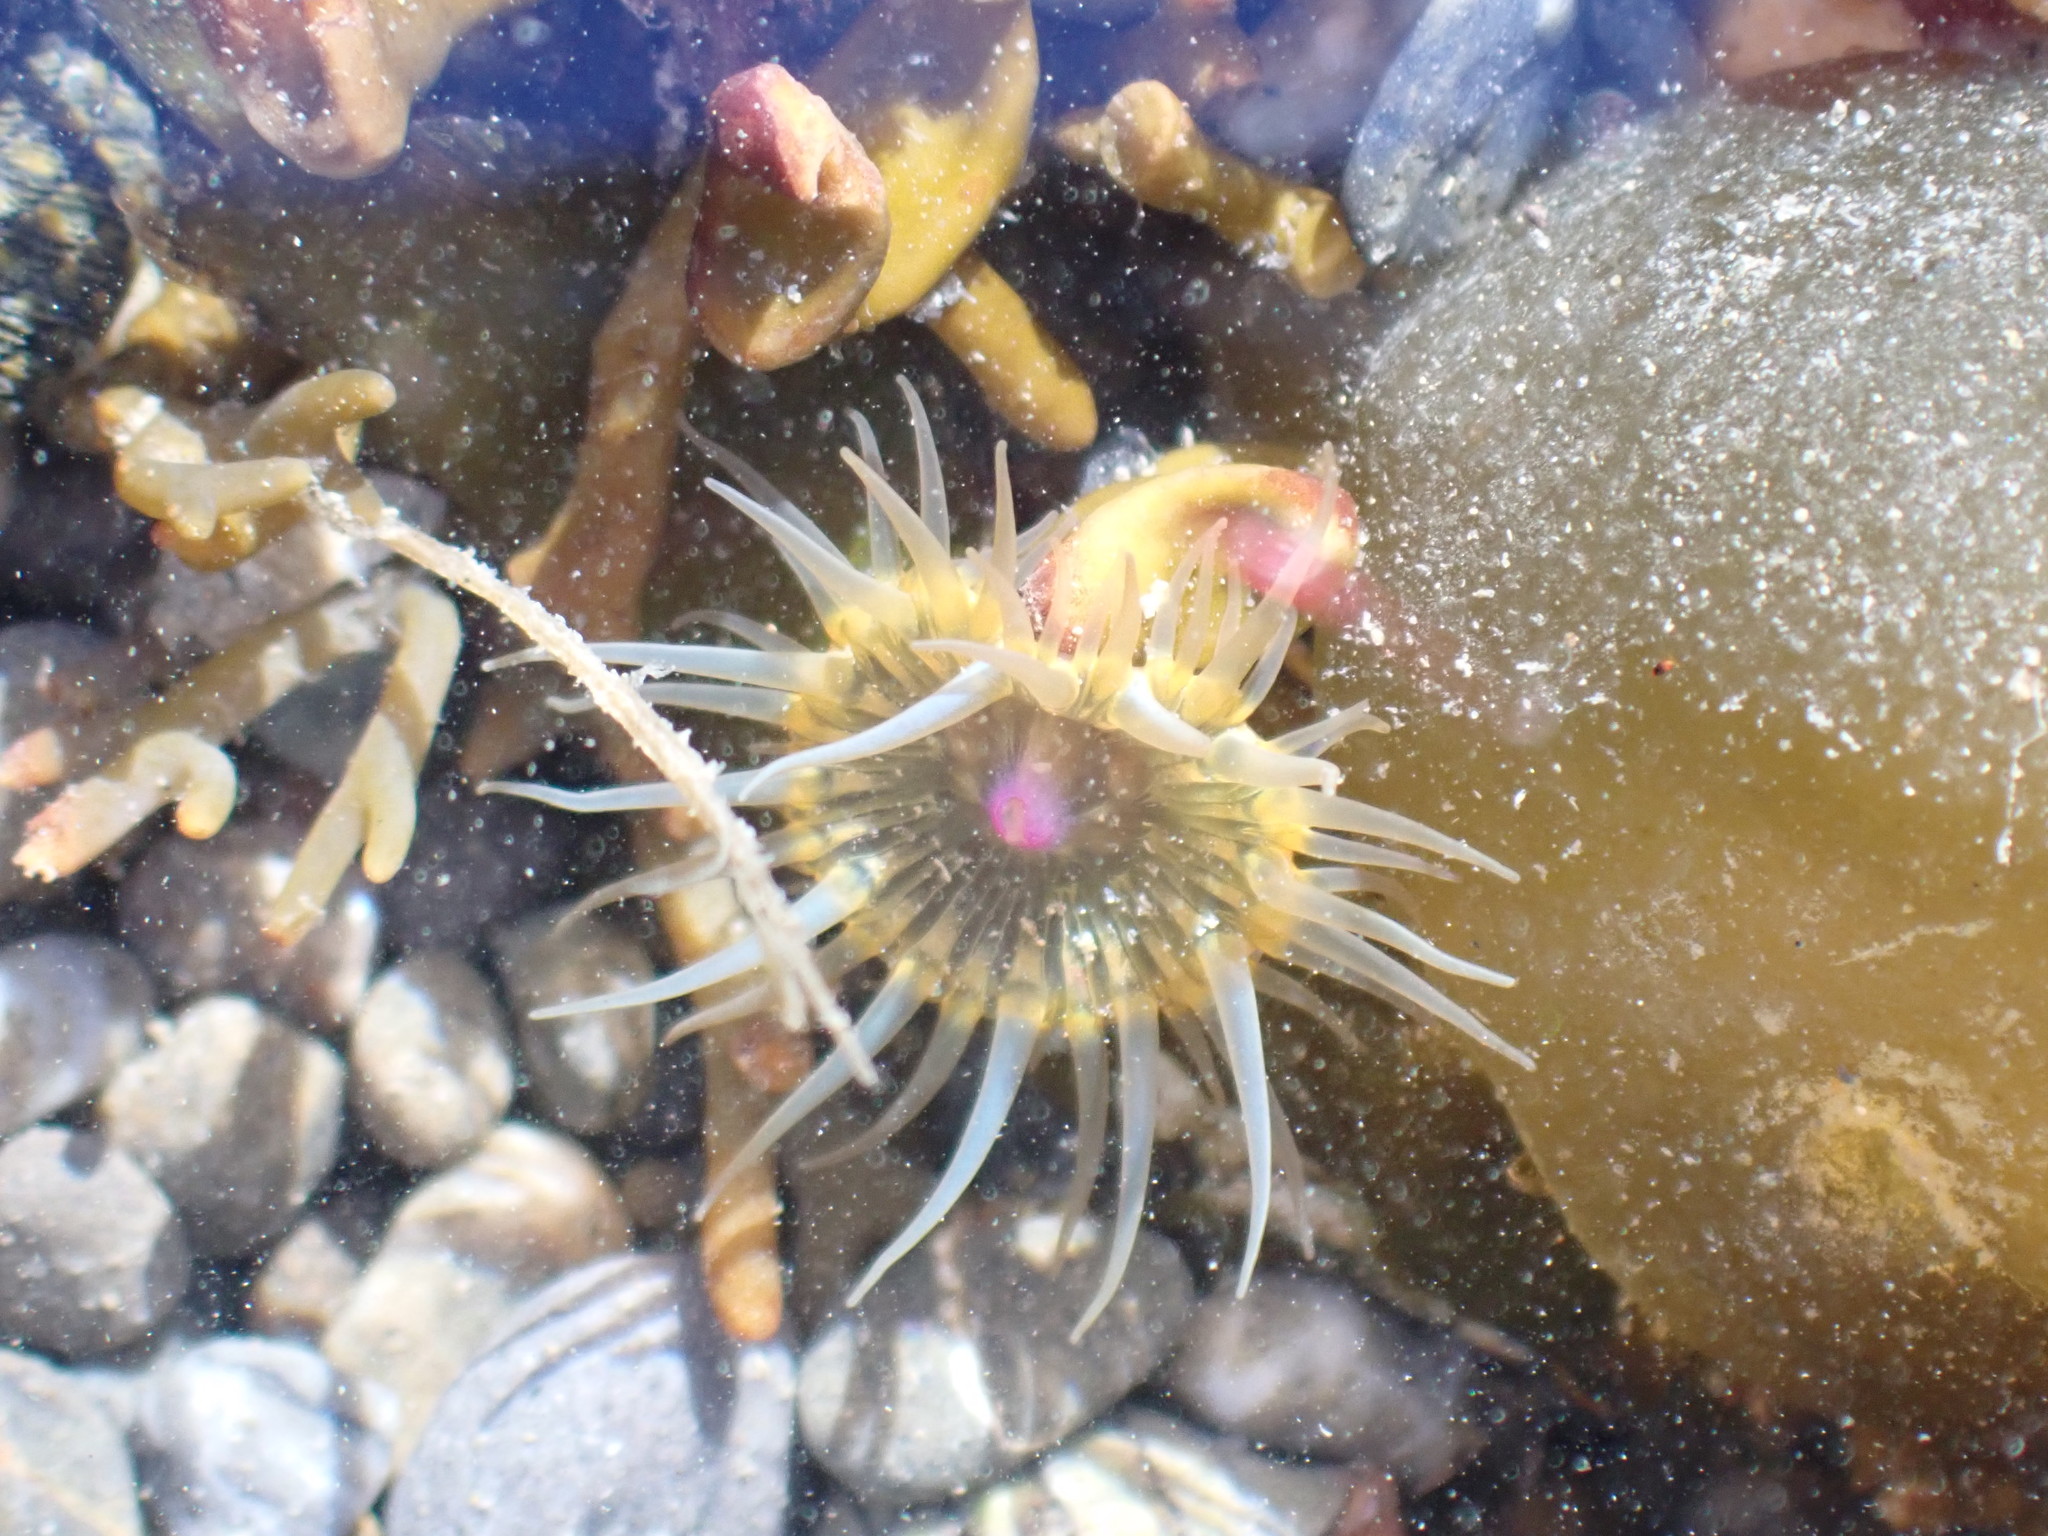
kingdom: Animalia
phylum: Cnidaria
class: Anthozoa
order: Actiniaria
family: Hormathiidae
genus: Handactis
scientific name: Handactis nutrix
